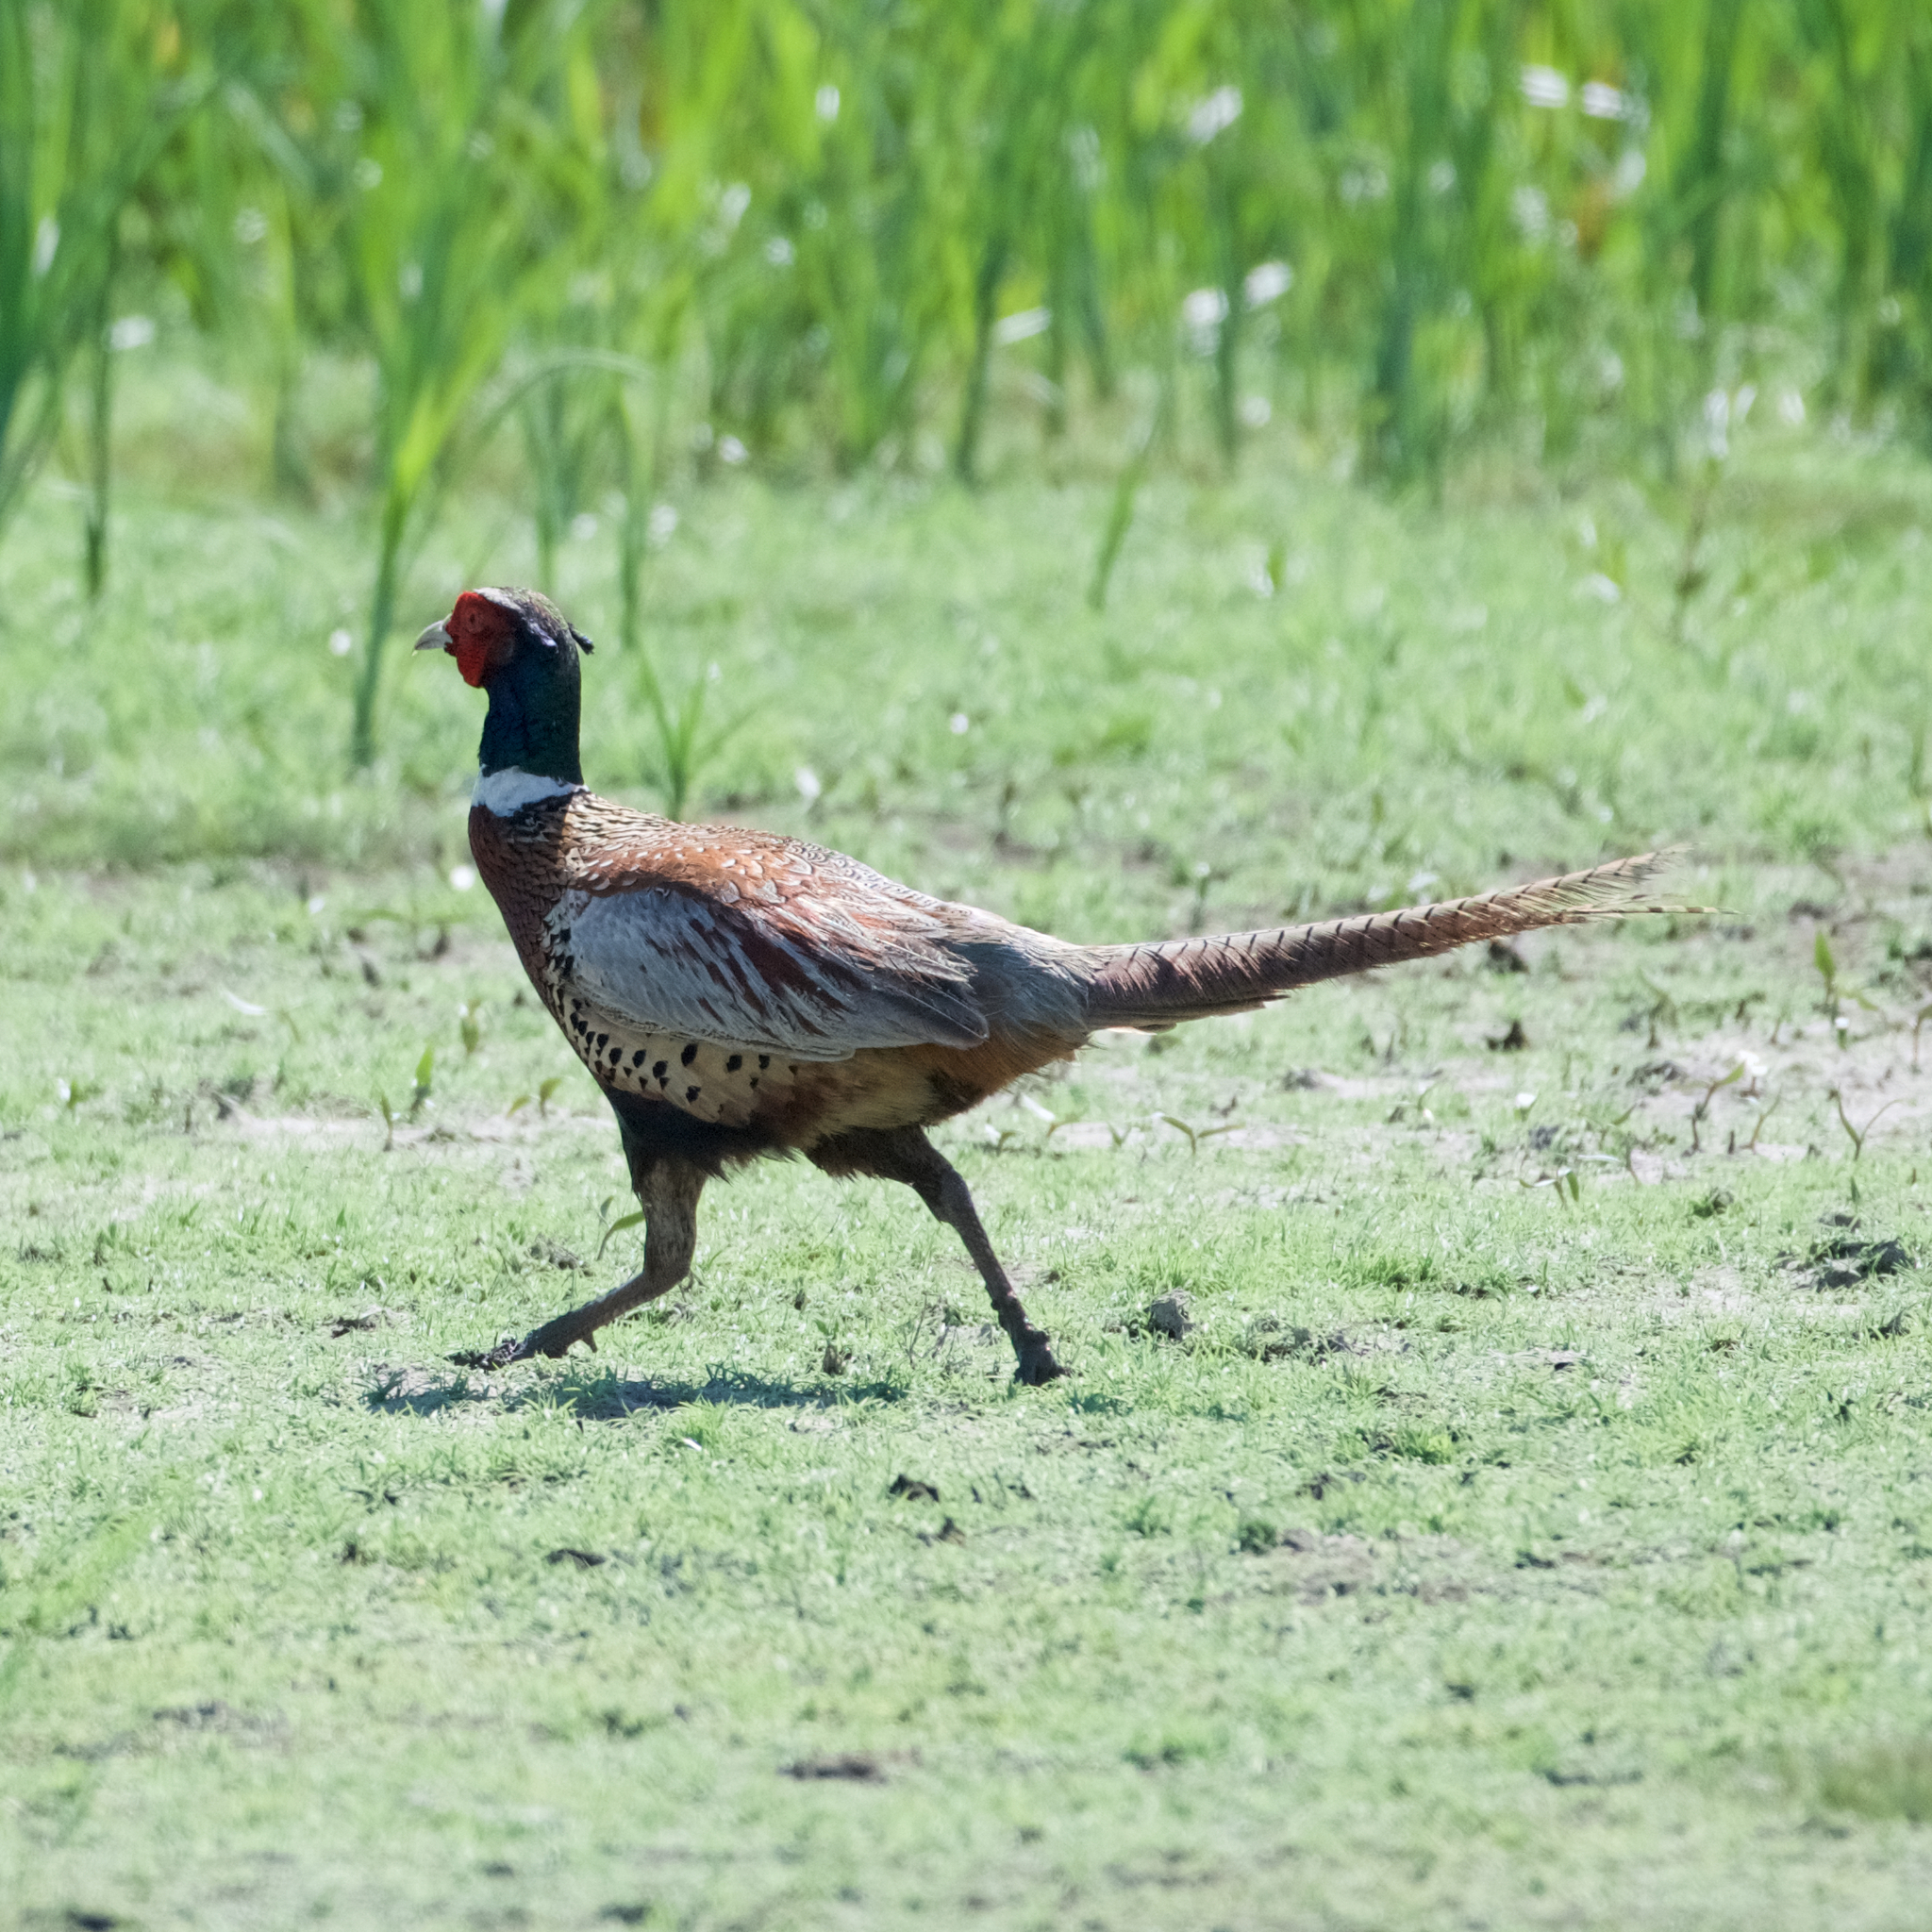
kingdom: Animalia
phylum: Chordata
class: Aves
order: Galliformes
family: Phasianidae
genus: Phasianus
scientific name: Phasianus colchicus
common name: Common pheasant
